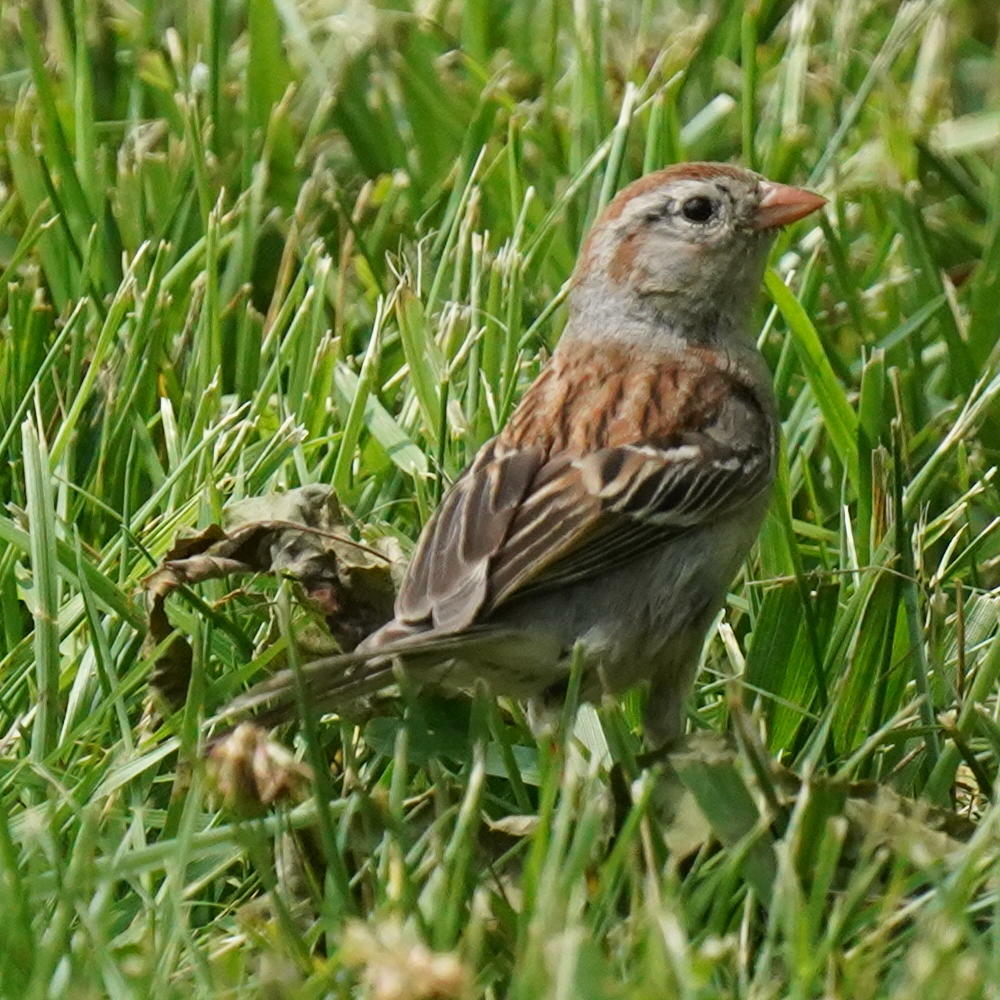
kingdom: Animalia
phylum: Chordata
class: Aves
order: Passeriformes
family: Passerellidae
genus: Spizella
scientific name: Spizella pusilla
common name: Field sparrow
